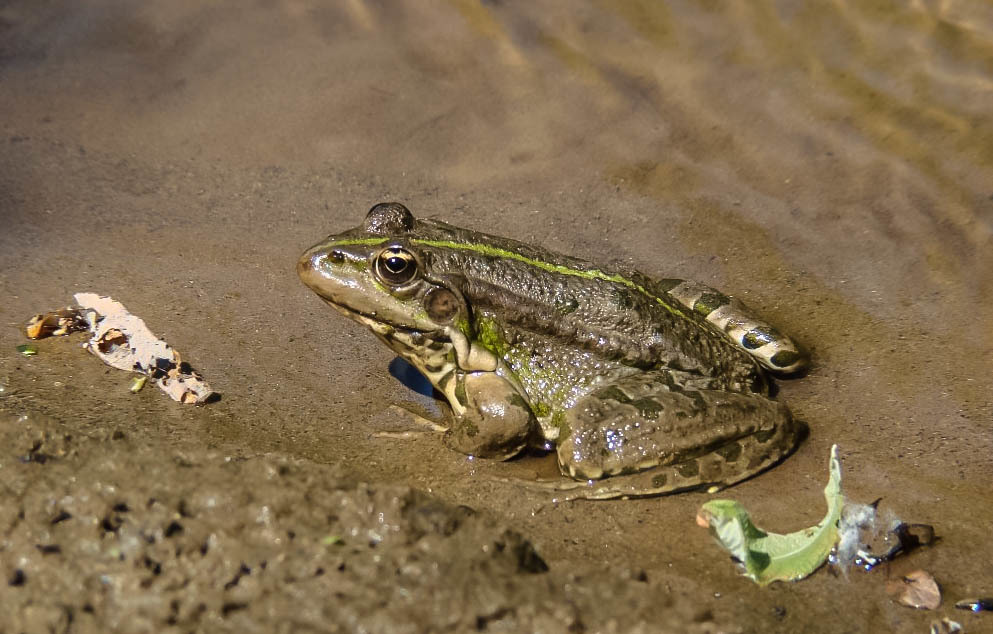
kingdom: Animalia
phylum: Chordata
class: Amphibia
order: Anura
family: Ranidae
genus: Pelophylax
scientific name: Pelophylax ridibundus
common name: Marsh frog
